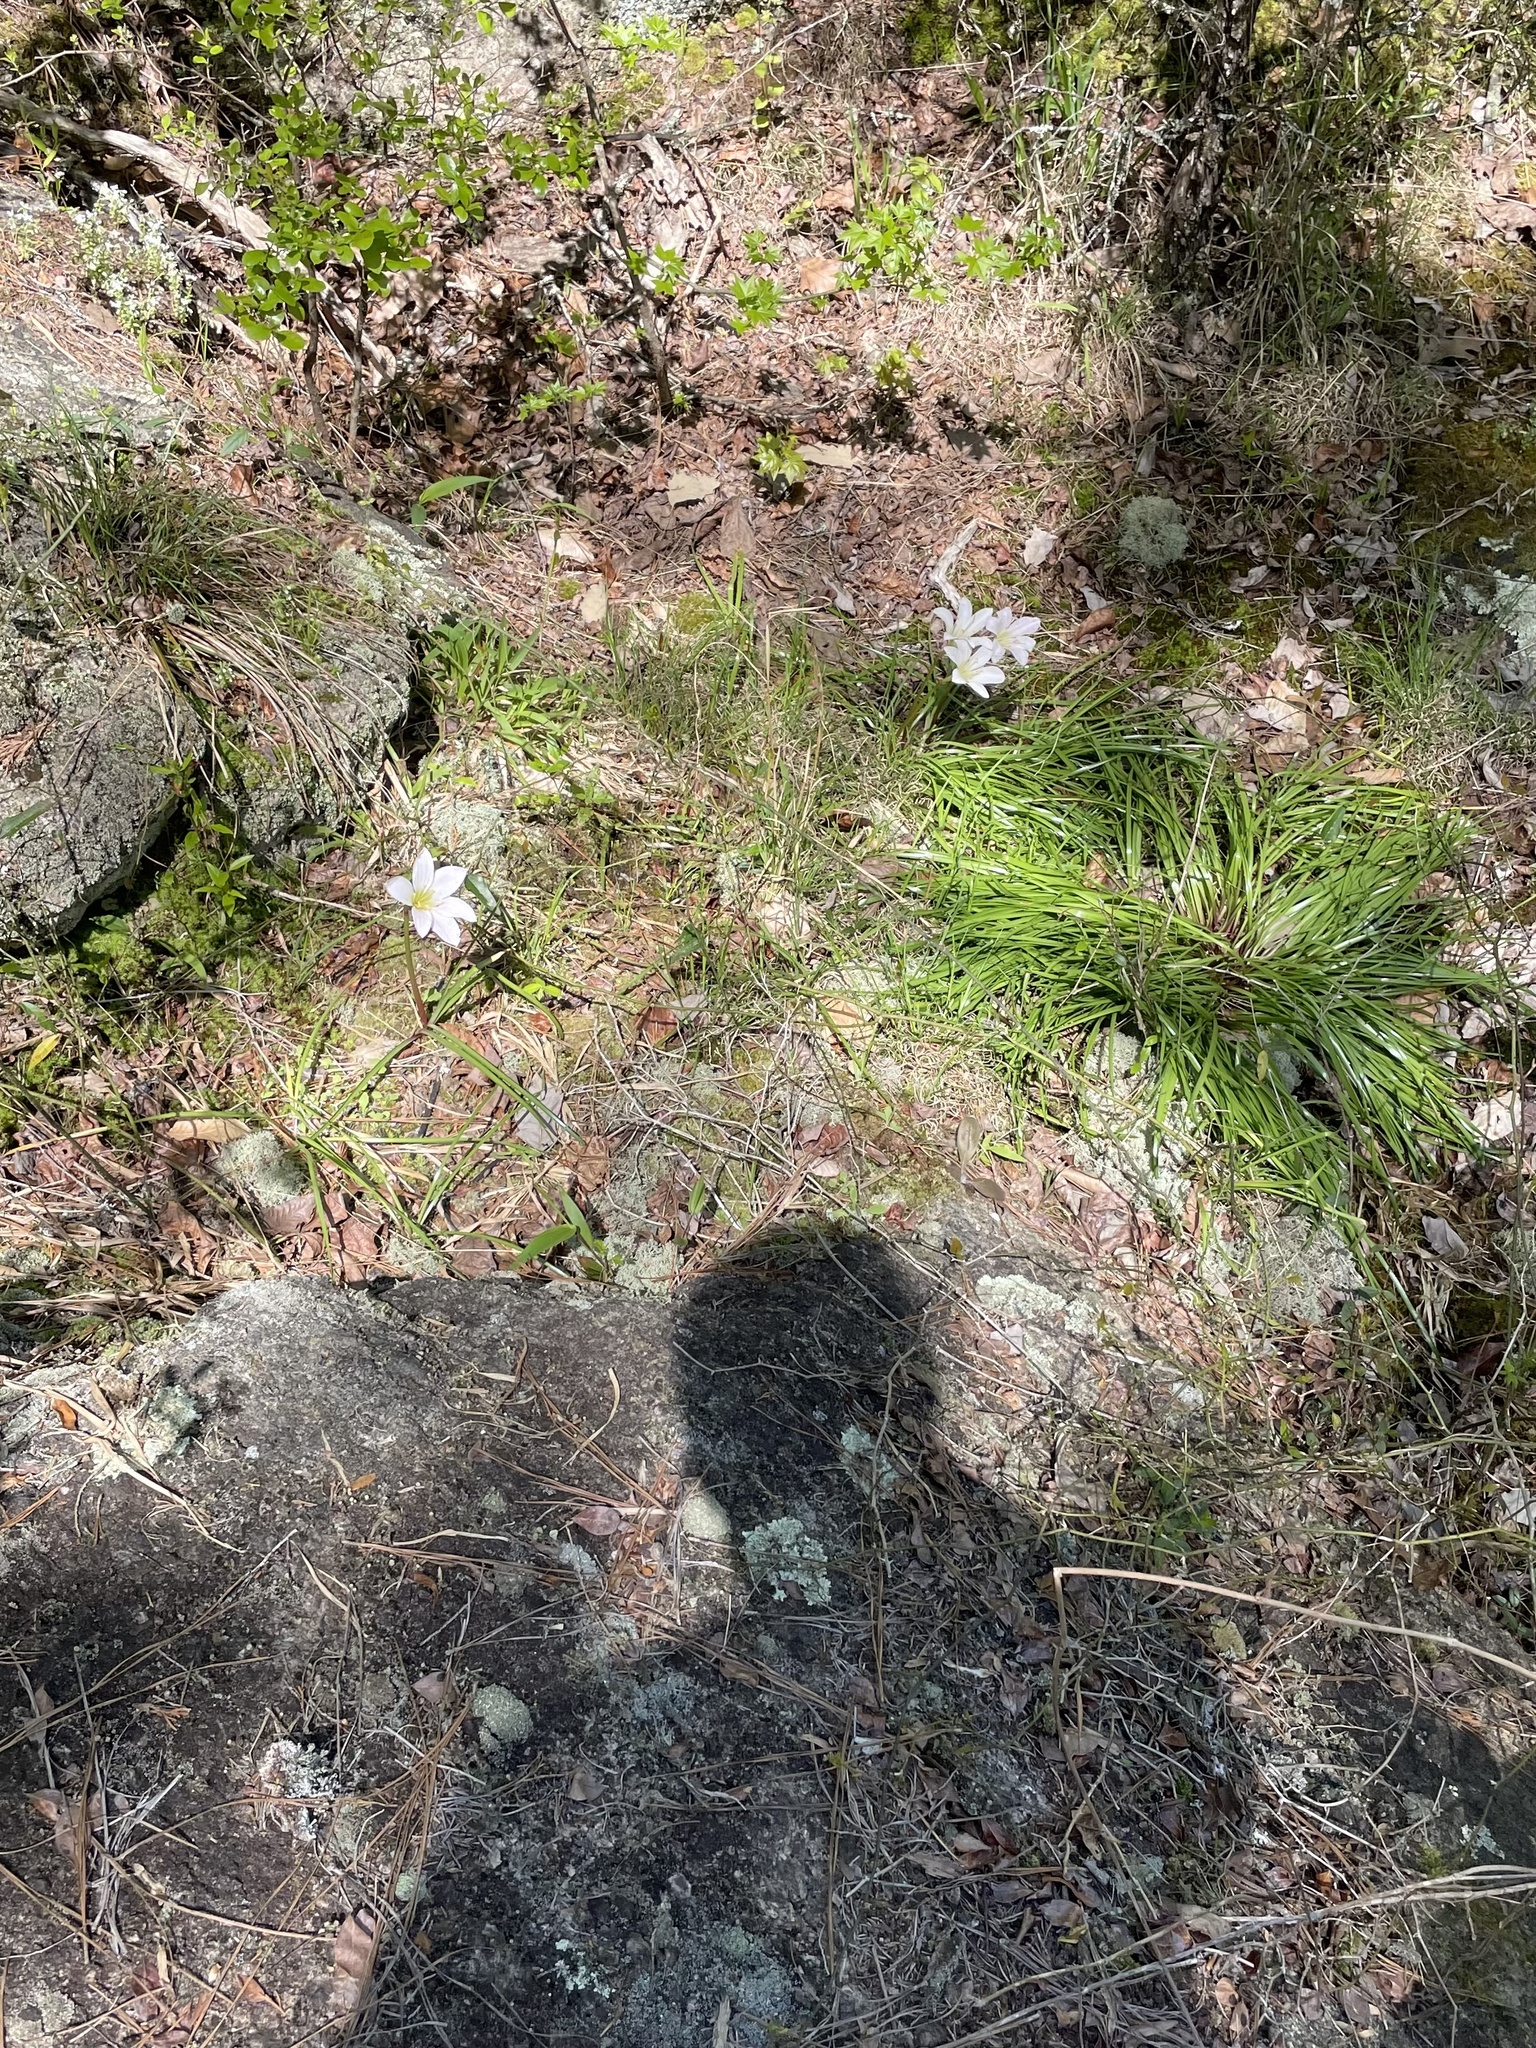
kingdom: Plantae
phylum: Tracheophyta
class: Liliopsida
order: Asparagales
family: Amaryllidaceae
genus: Zephyranthes
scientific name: Zephyranthes atamasco
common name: Atamasco lily
